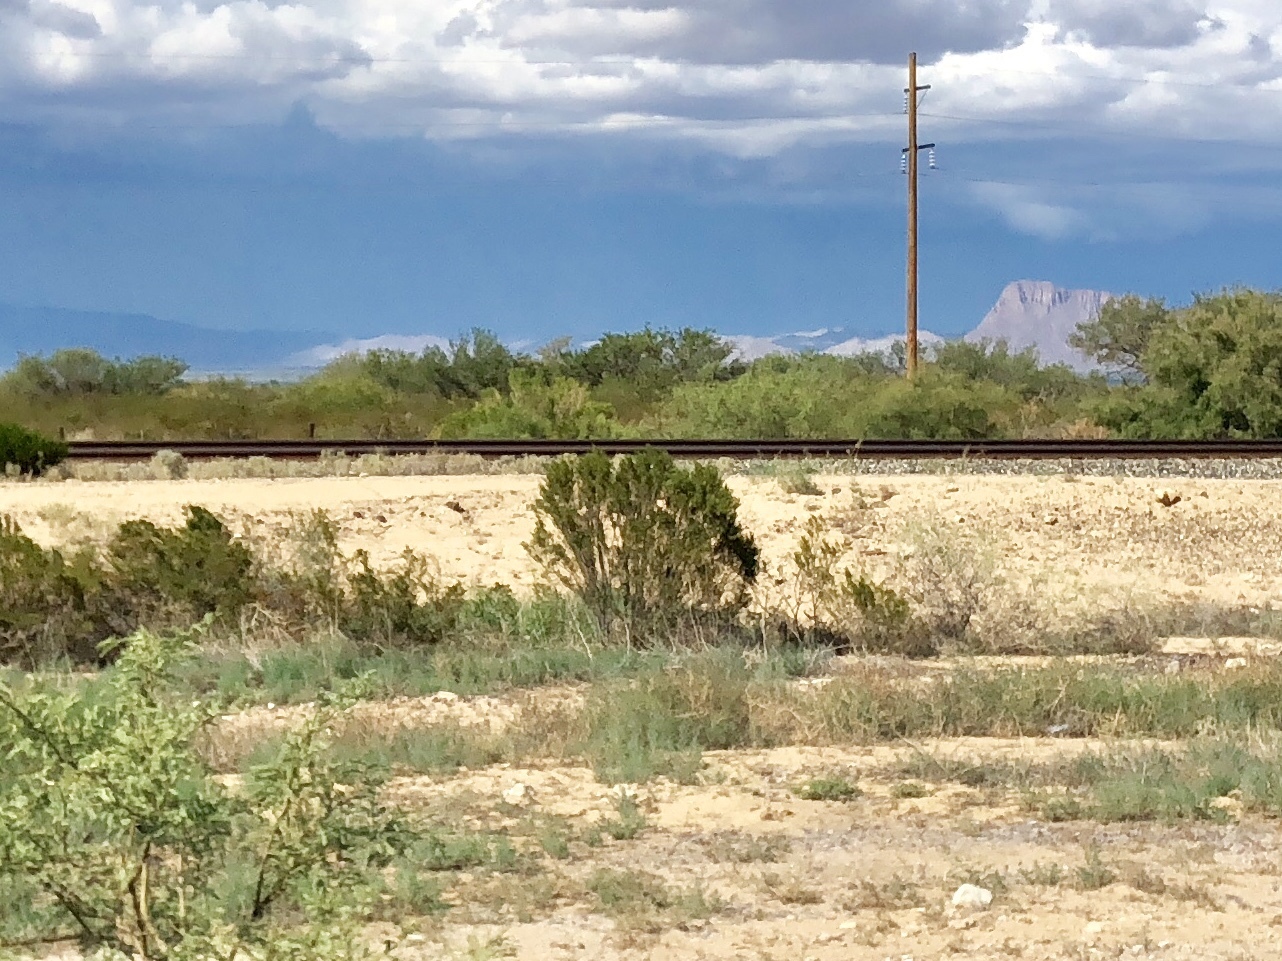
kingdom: Plantae
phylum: Tracheophyta
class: Magnoliopsida
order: Zygophyllales
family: Zygophyllaceae
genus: Larrea
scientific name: Larrea tridentata
